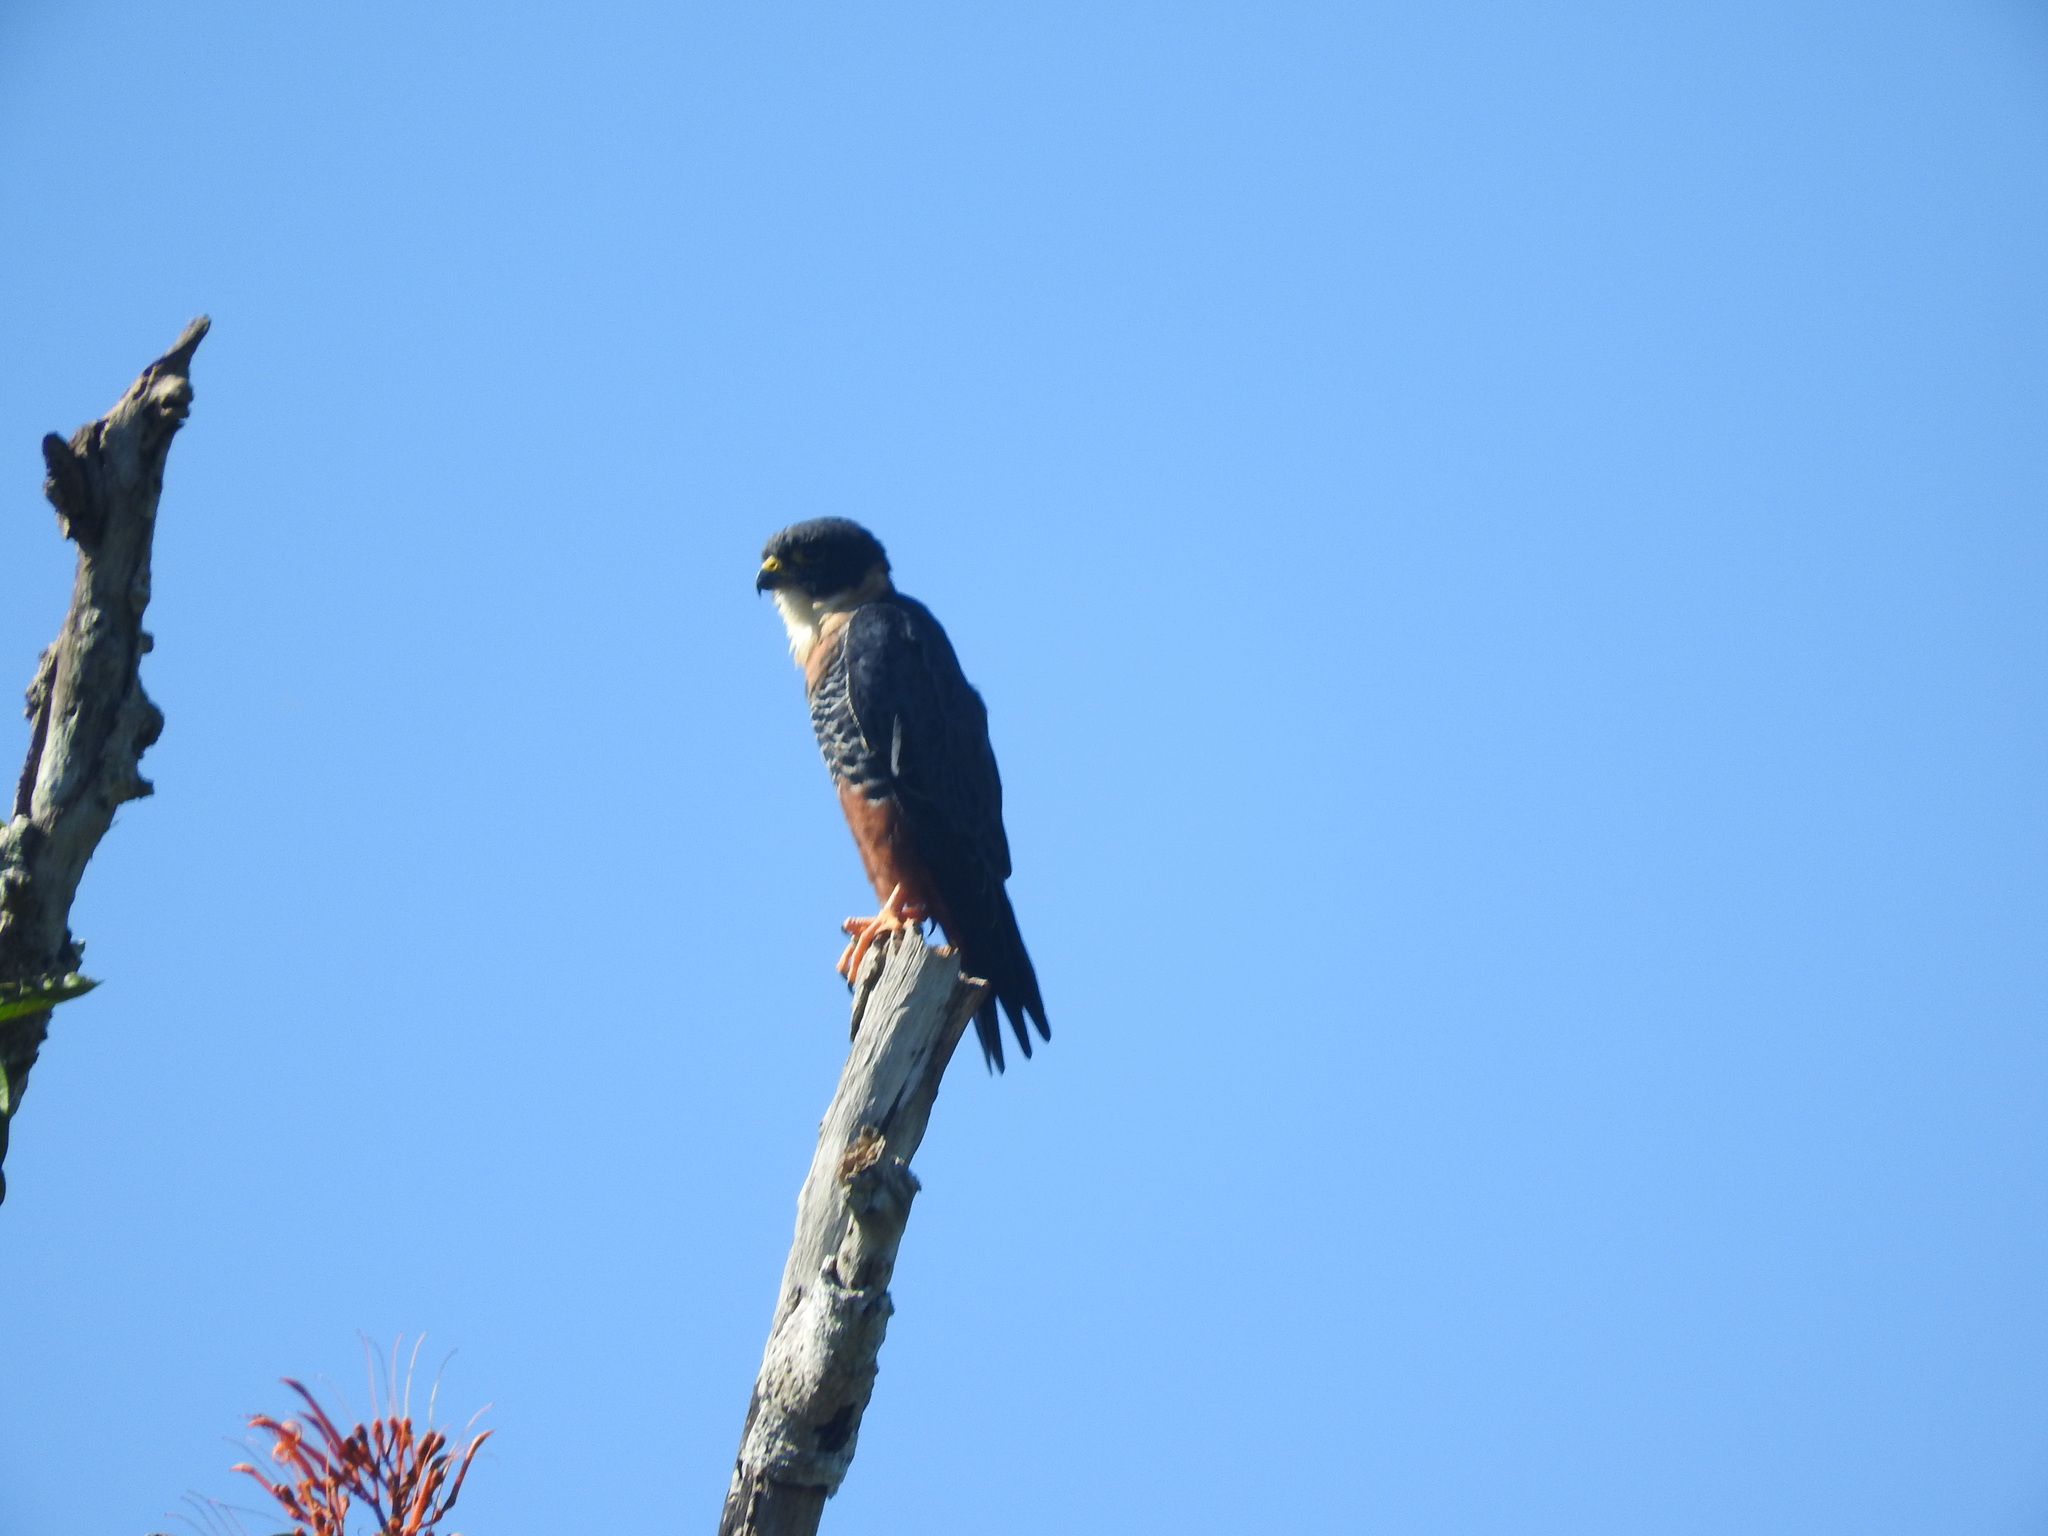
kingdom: Animalia
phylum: Chordata
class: Aves
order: Falconiformes
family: Falconidae
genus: Falco
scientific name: Falco rufigularis
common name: Bat falcon
